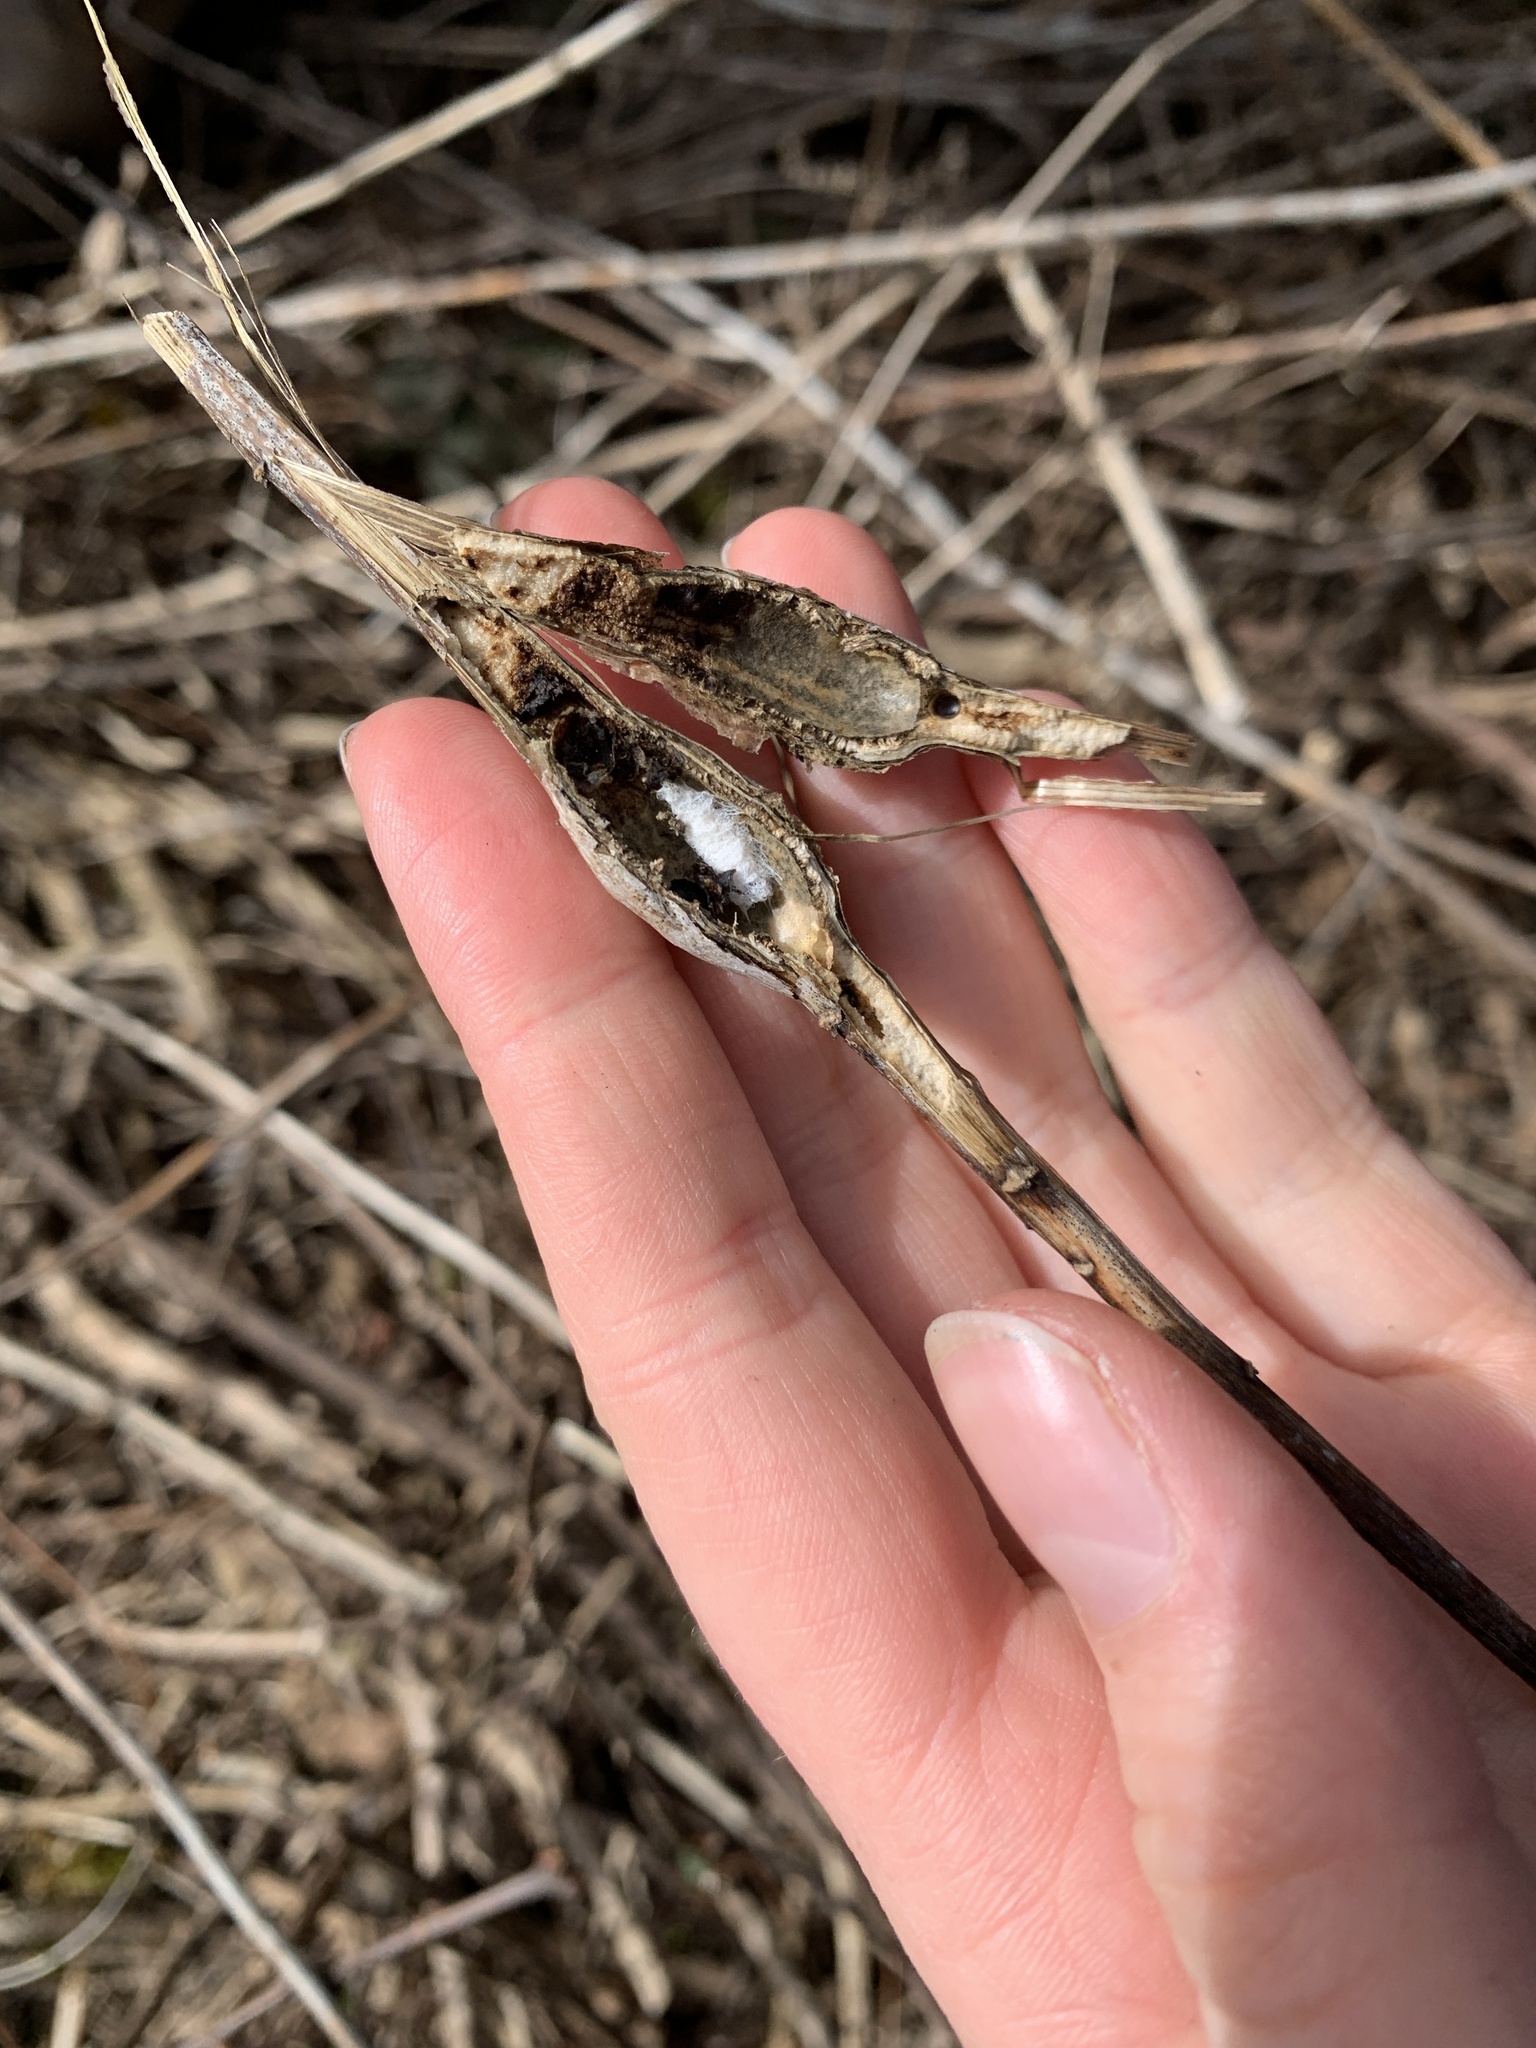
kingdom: Animalia
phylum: Arthropoda
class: Insecta
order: Lepidoptera
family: Gelechiidae
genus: Gnorimoschema
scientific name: Gnorimoschema gallaesolidaginis
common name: Goldenrod elliptical-gall moth
